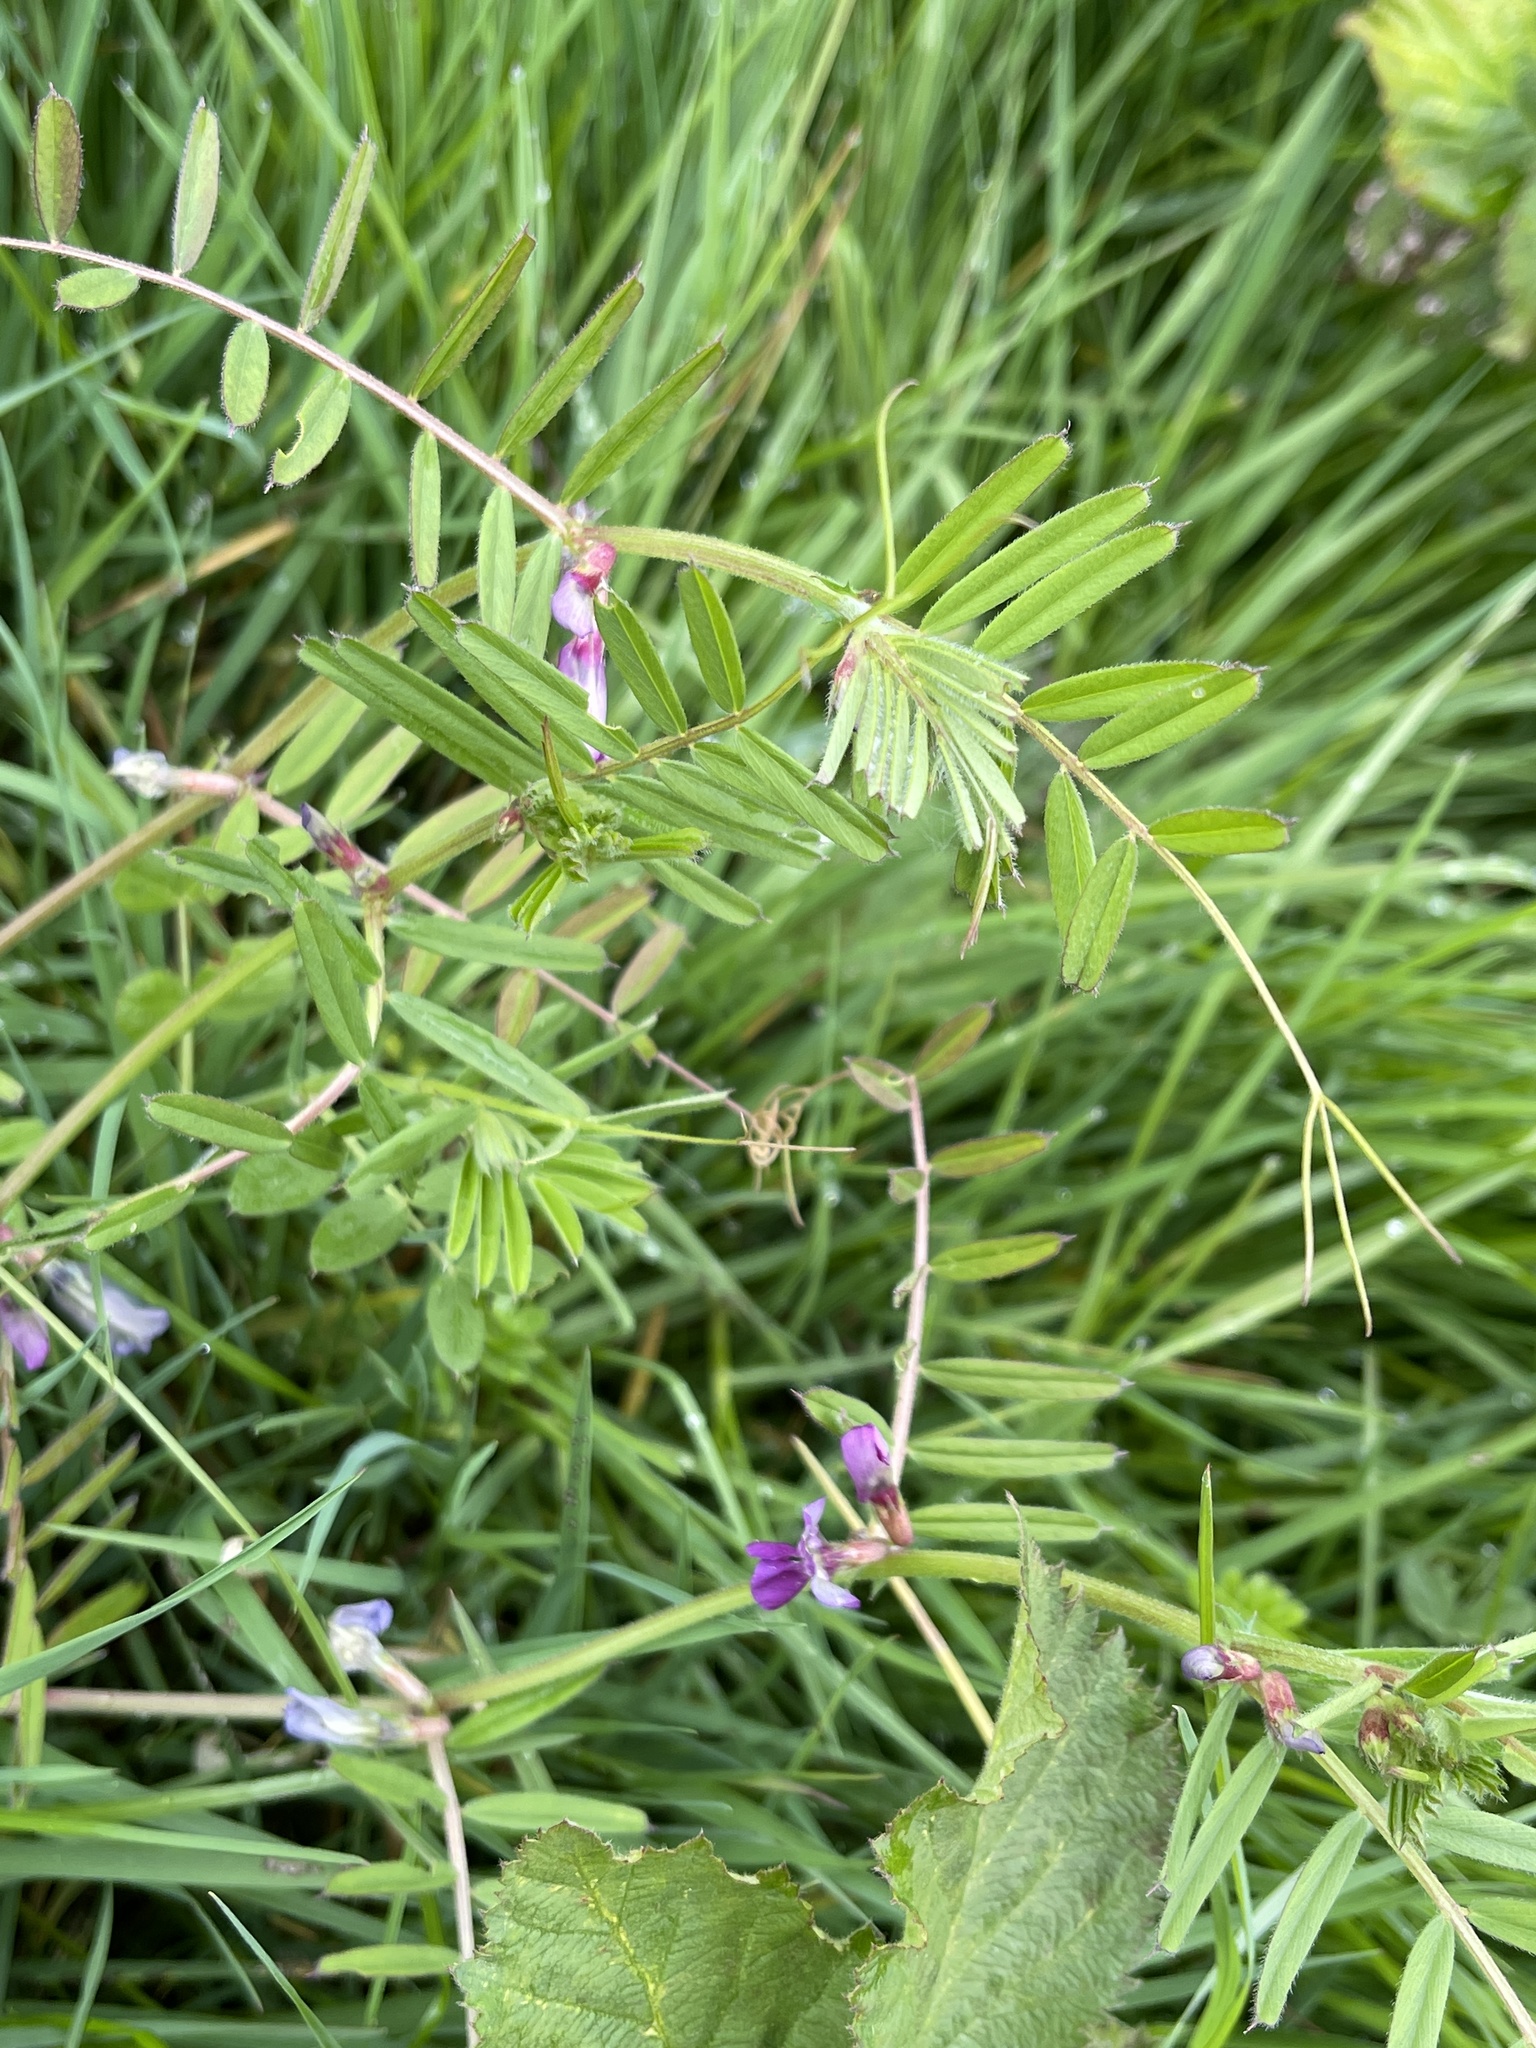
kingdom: Plantae
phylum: Tracheophyta
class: Magnoliopsida
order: Fabales
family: Fabaceae
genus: Vicia
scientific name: Vicia sativa
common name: Garden vetch
